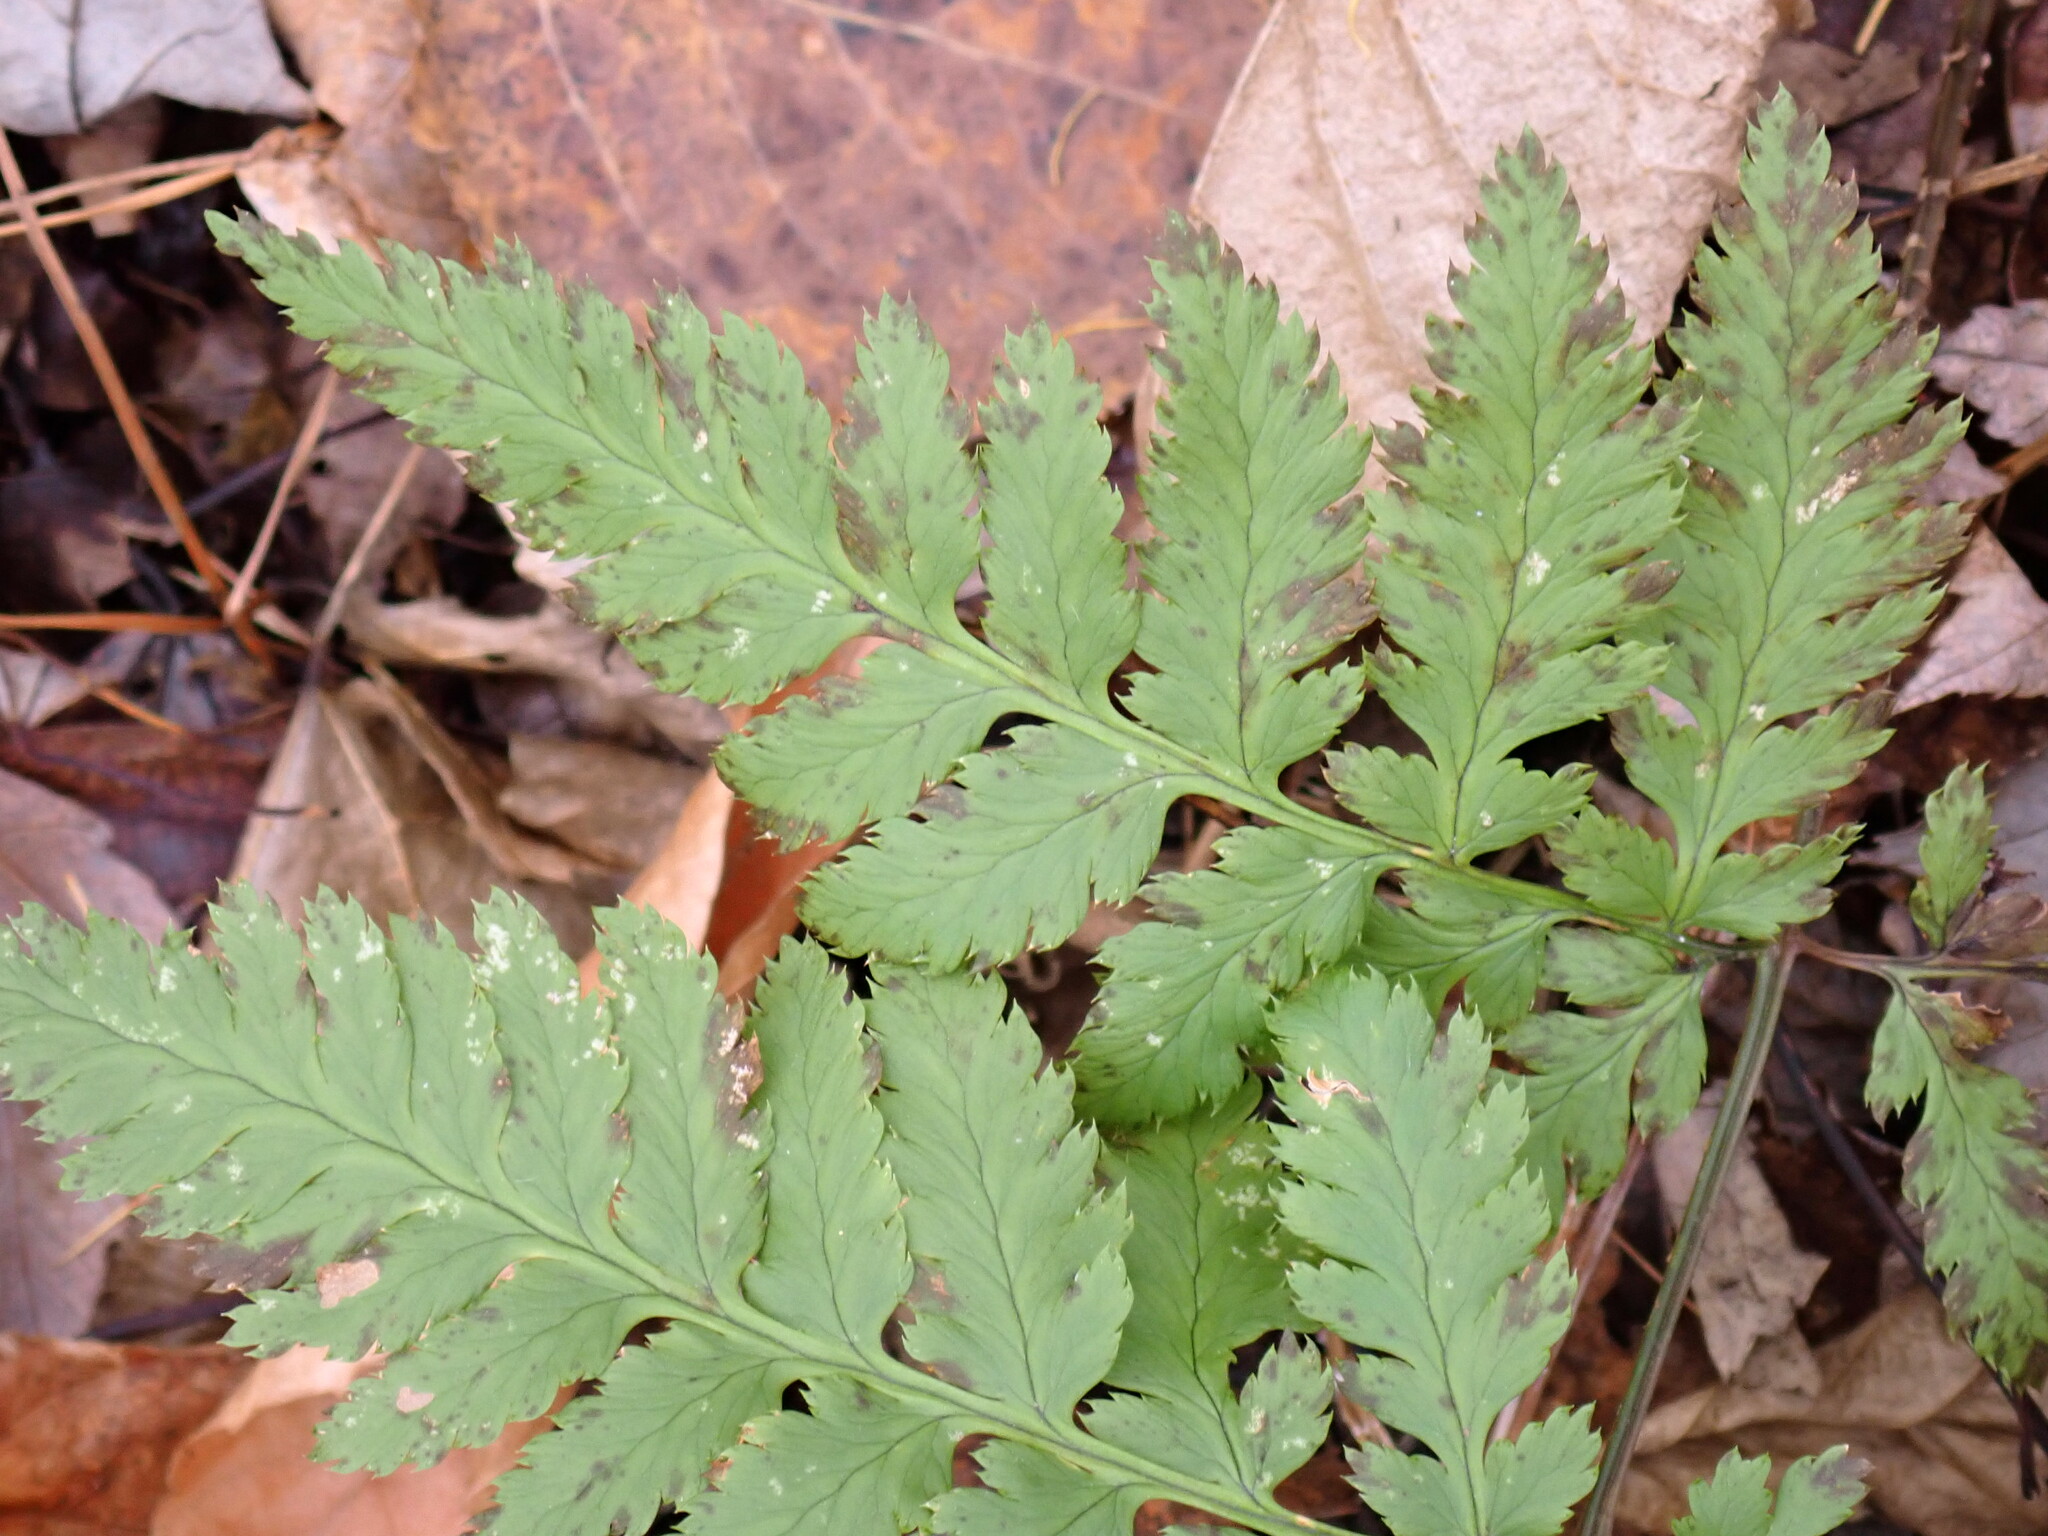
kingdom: Plantae
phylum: Tracheophyta
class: Polypodiopsida
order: Polypodiales
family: Dryopteridaceae
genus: Dryopteris
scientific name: Dryopteris carthusiana
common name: Narrow buckler-fern
